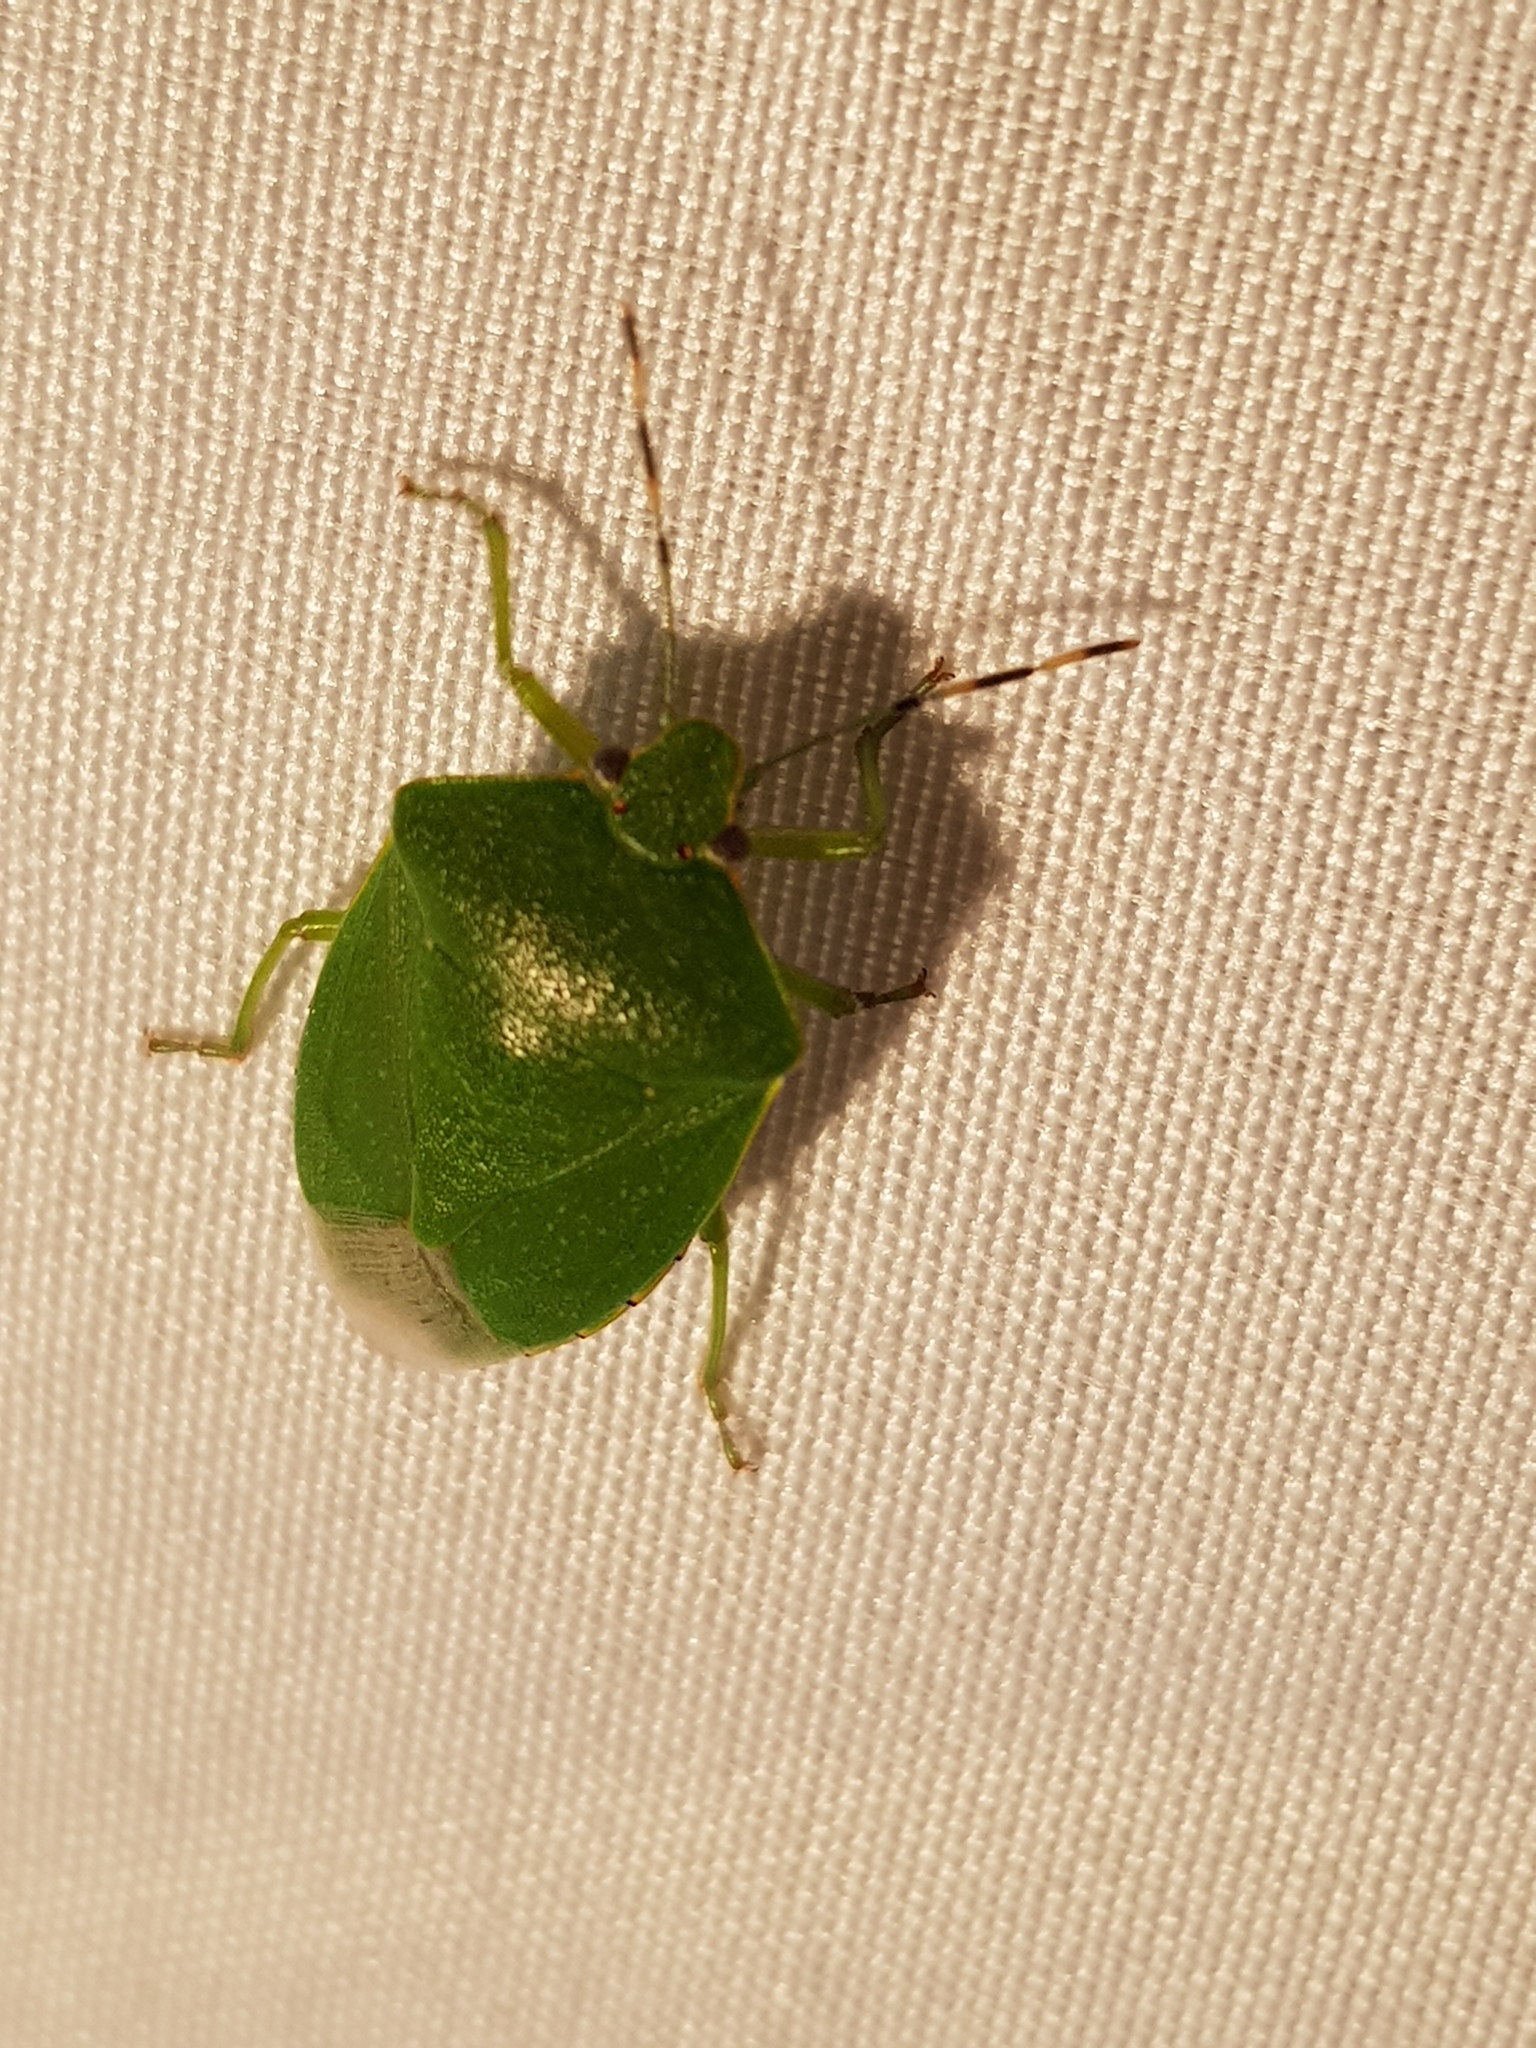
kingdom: Animalia
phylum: Arthropoda
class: Insecta
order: Hemiptera
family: Pentatomidae
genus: Chinavia
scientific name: Chinavia hilaris
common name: Green stink bug
